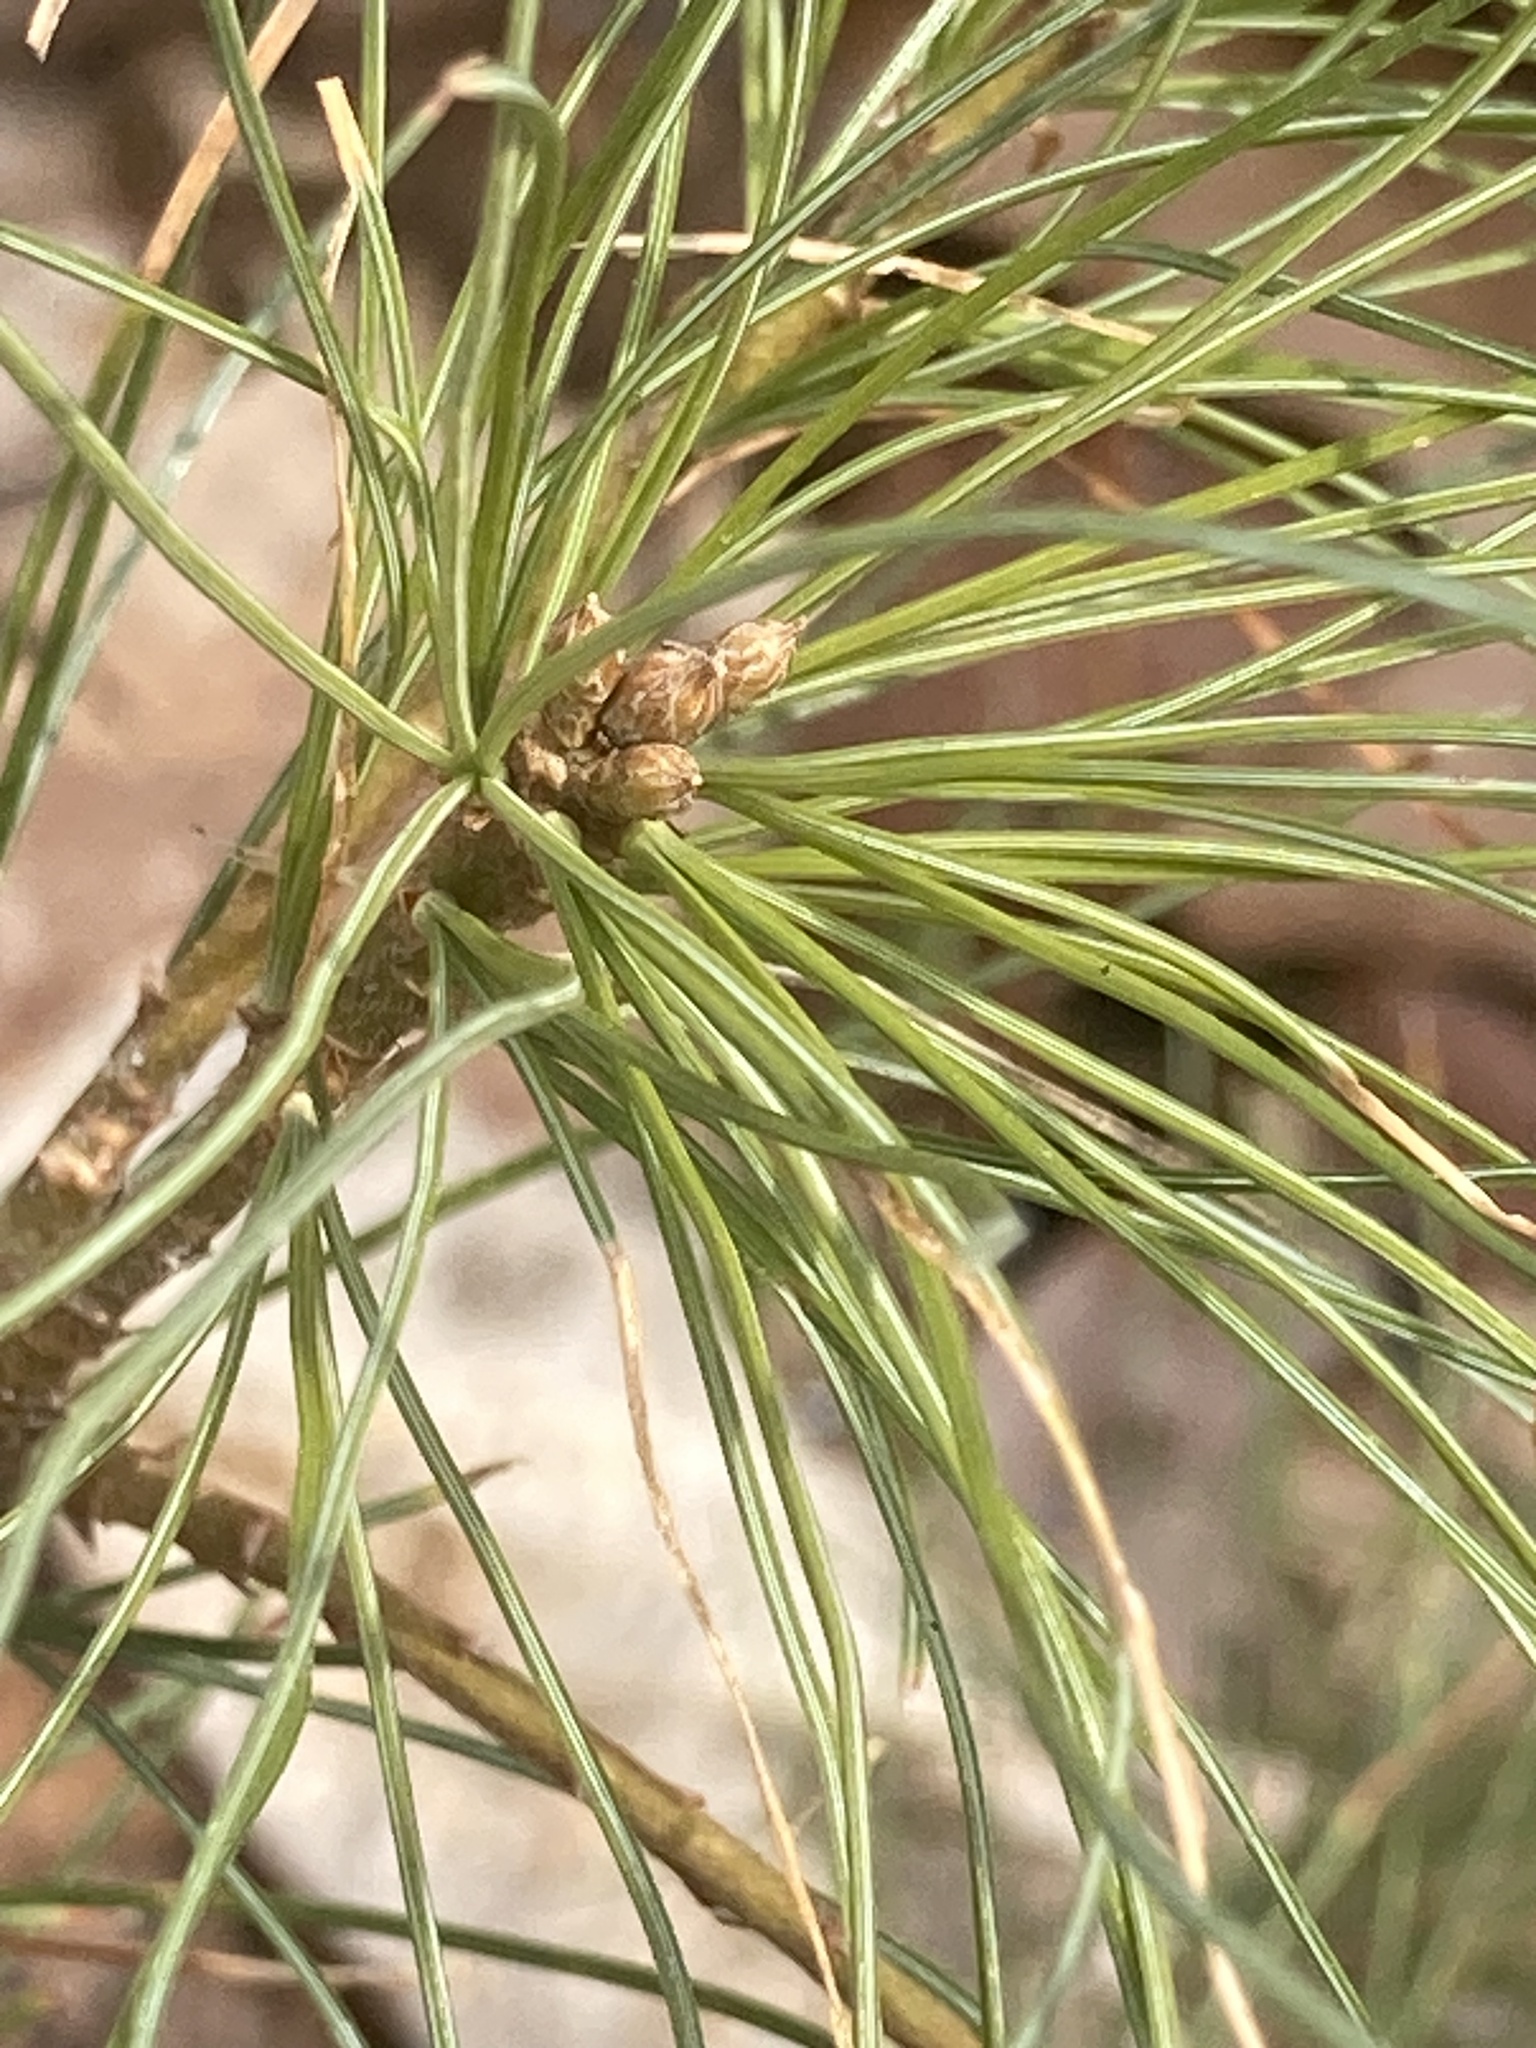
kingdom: Plantae
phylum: Tracheophyta
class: Pinopsida
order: Pinales
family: Pinaceae
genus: Pinus
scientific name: Pinus strobus
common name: Weymouth pine
